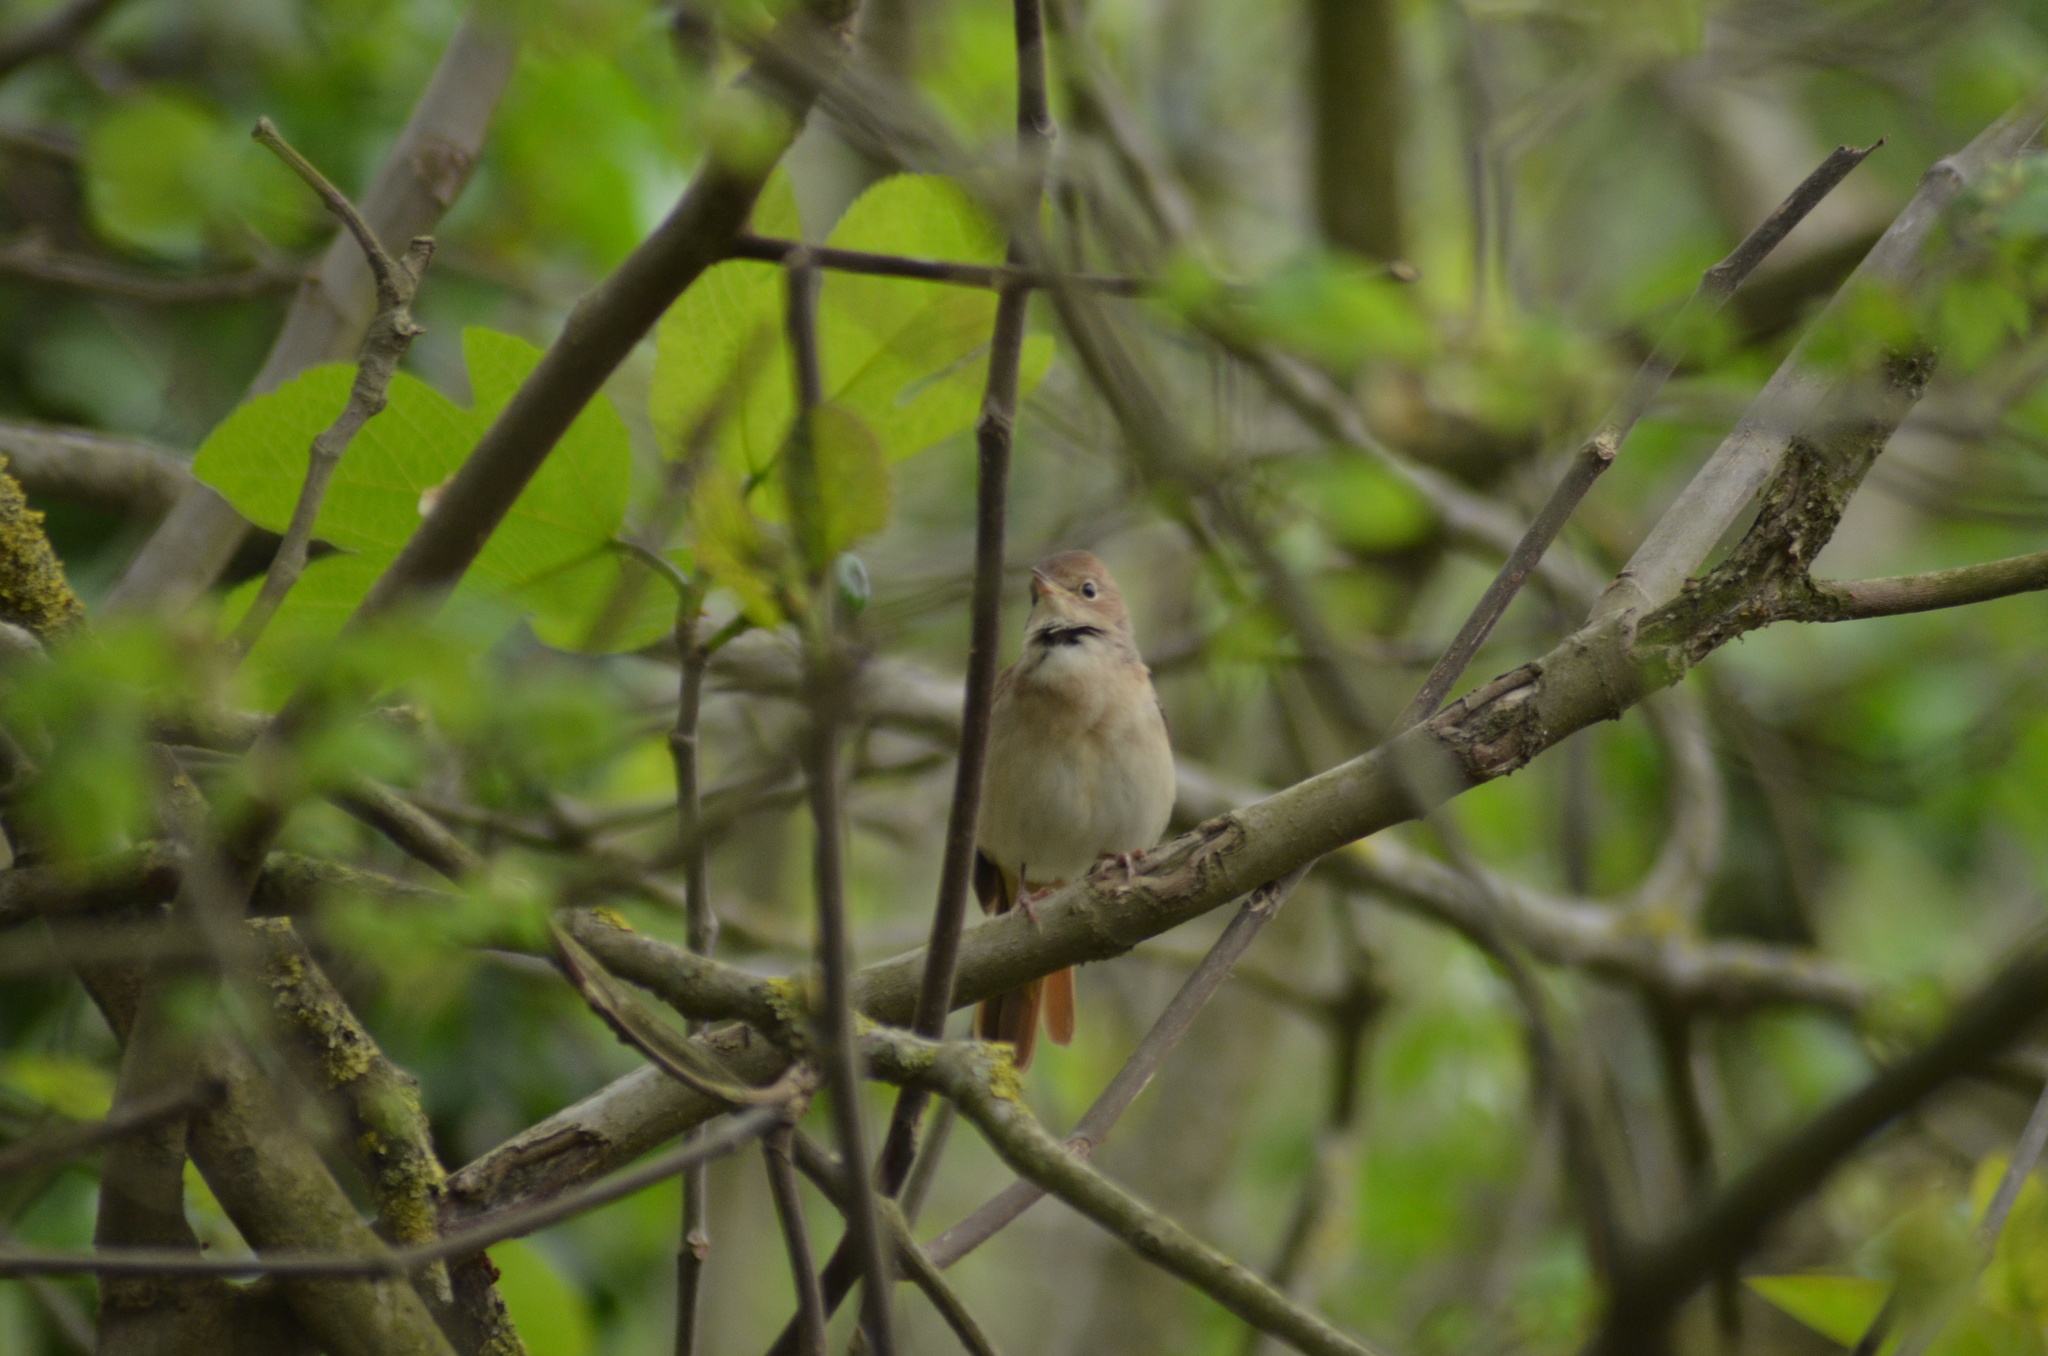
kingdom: Animalia
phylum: Chordata
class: Aves
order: Passeriformes
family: Muscicapidae
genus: Luscinia
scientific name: Luscinia megarhynchos
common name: Common nightingale
